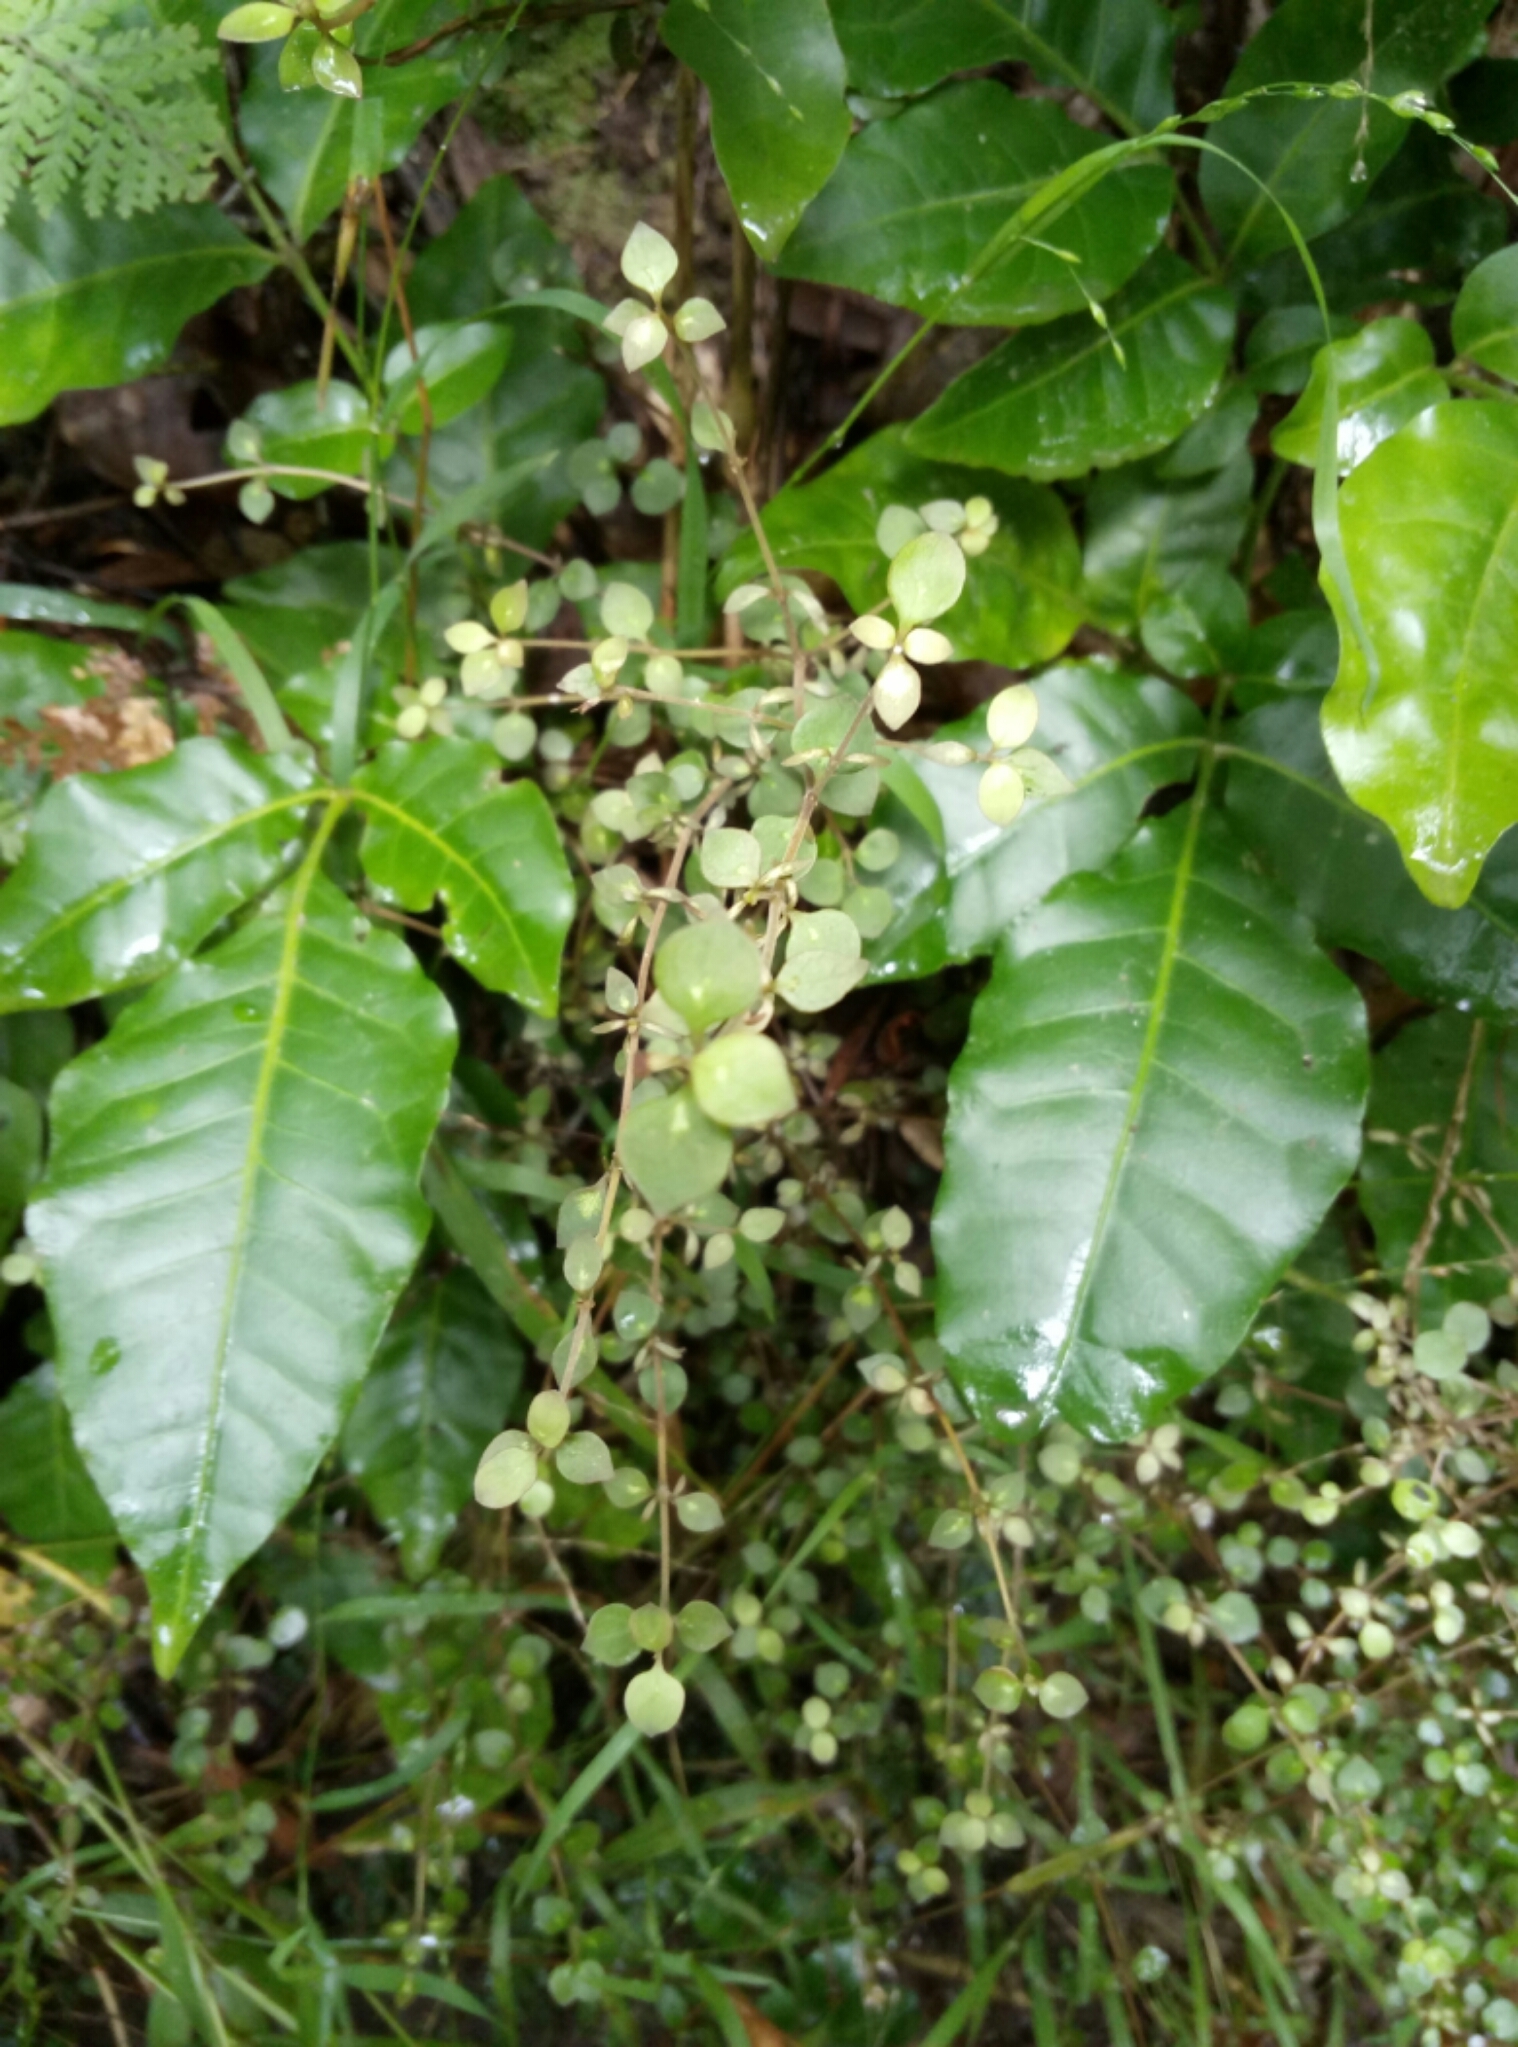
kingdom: Plantae
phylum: Tracheophyta
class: Magnoliopsida
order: Gentianales
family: Rubiaceae
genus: Coprosma
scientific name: Coprosma rhamnoides
